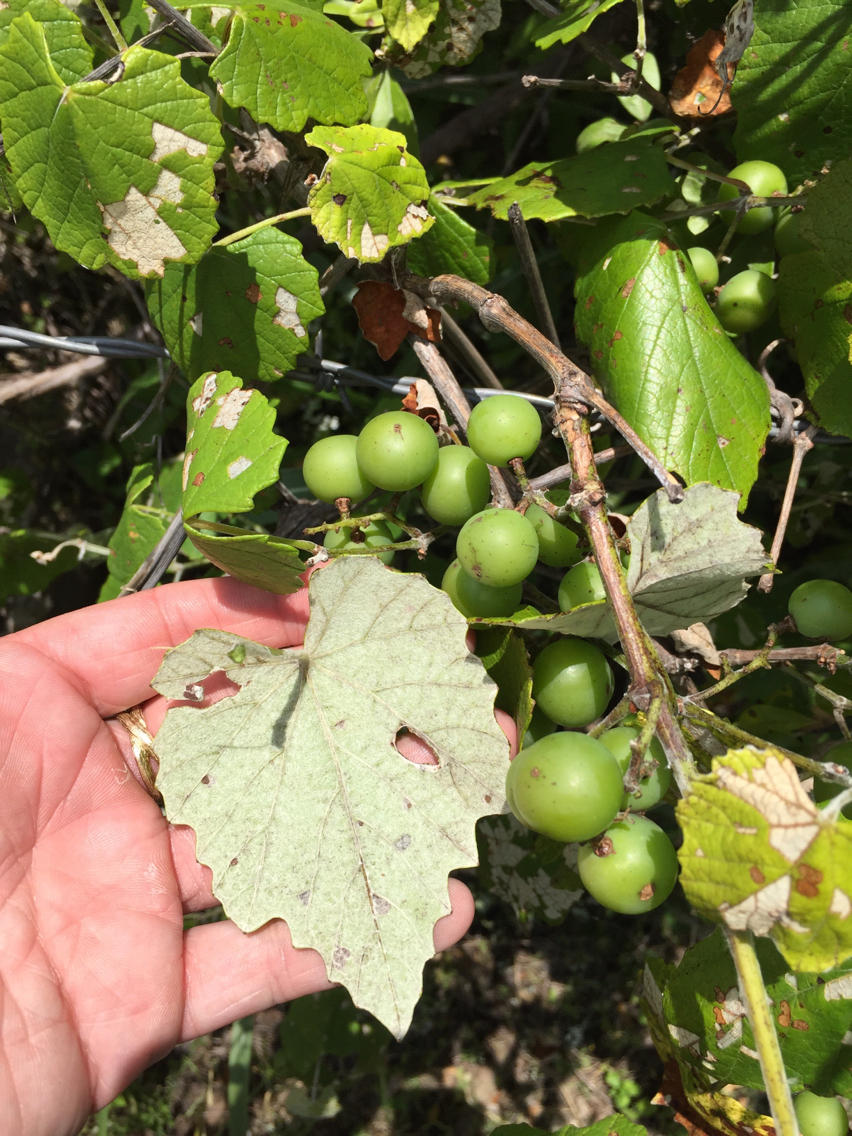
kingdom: Plantae
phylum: Tracheophyta
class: Magnoliopsida
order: Vitales
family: Vitaceae
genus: Vitis
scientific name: Vitis mustangensis
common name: Mustang grape
